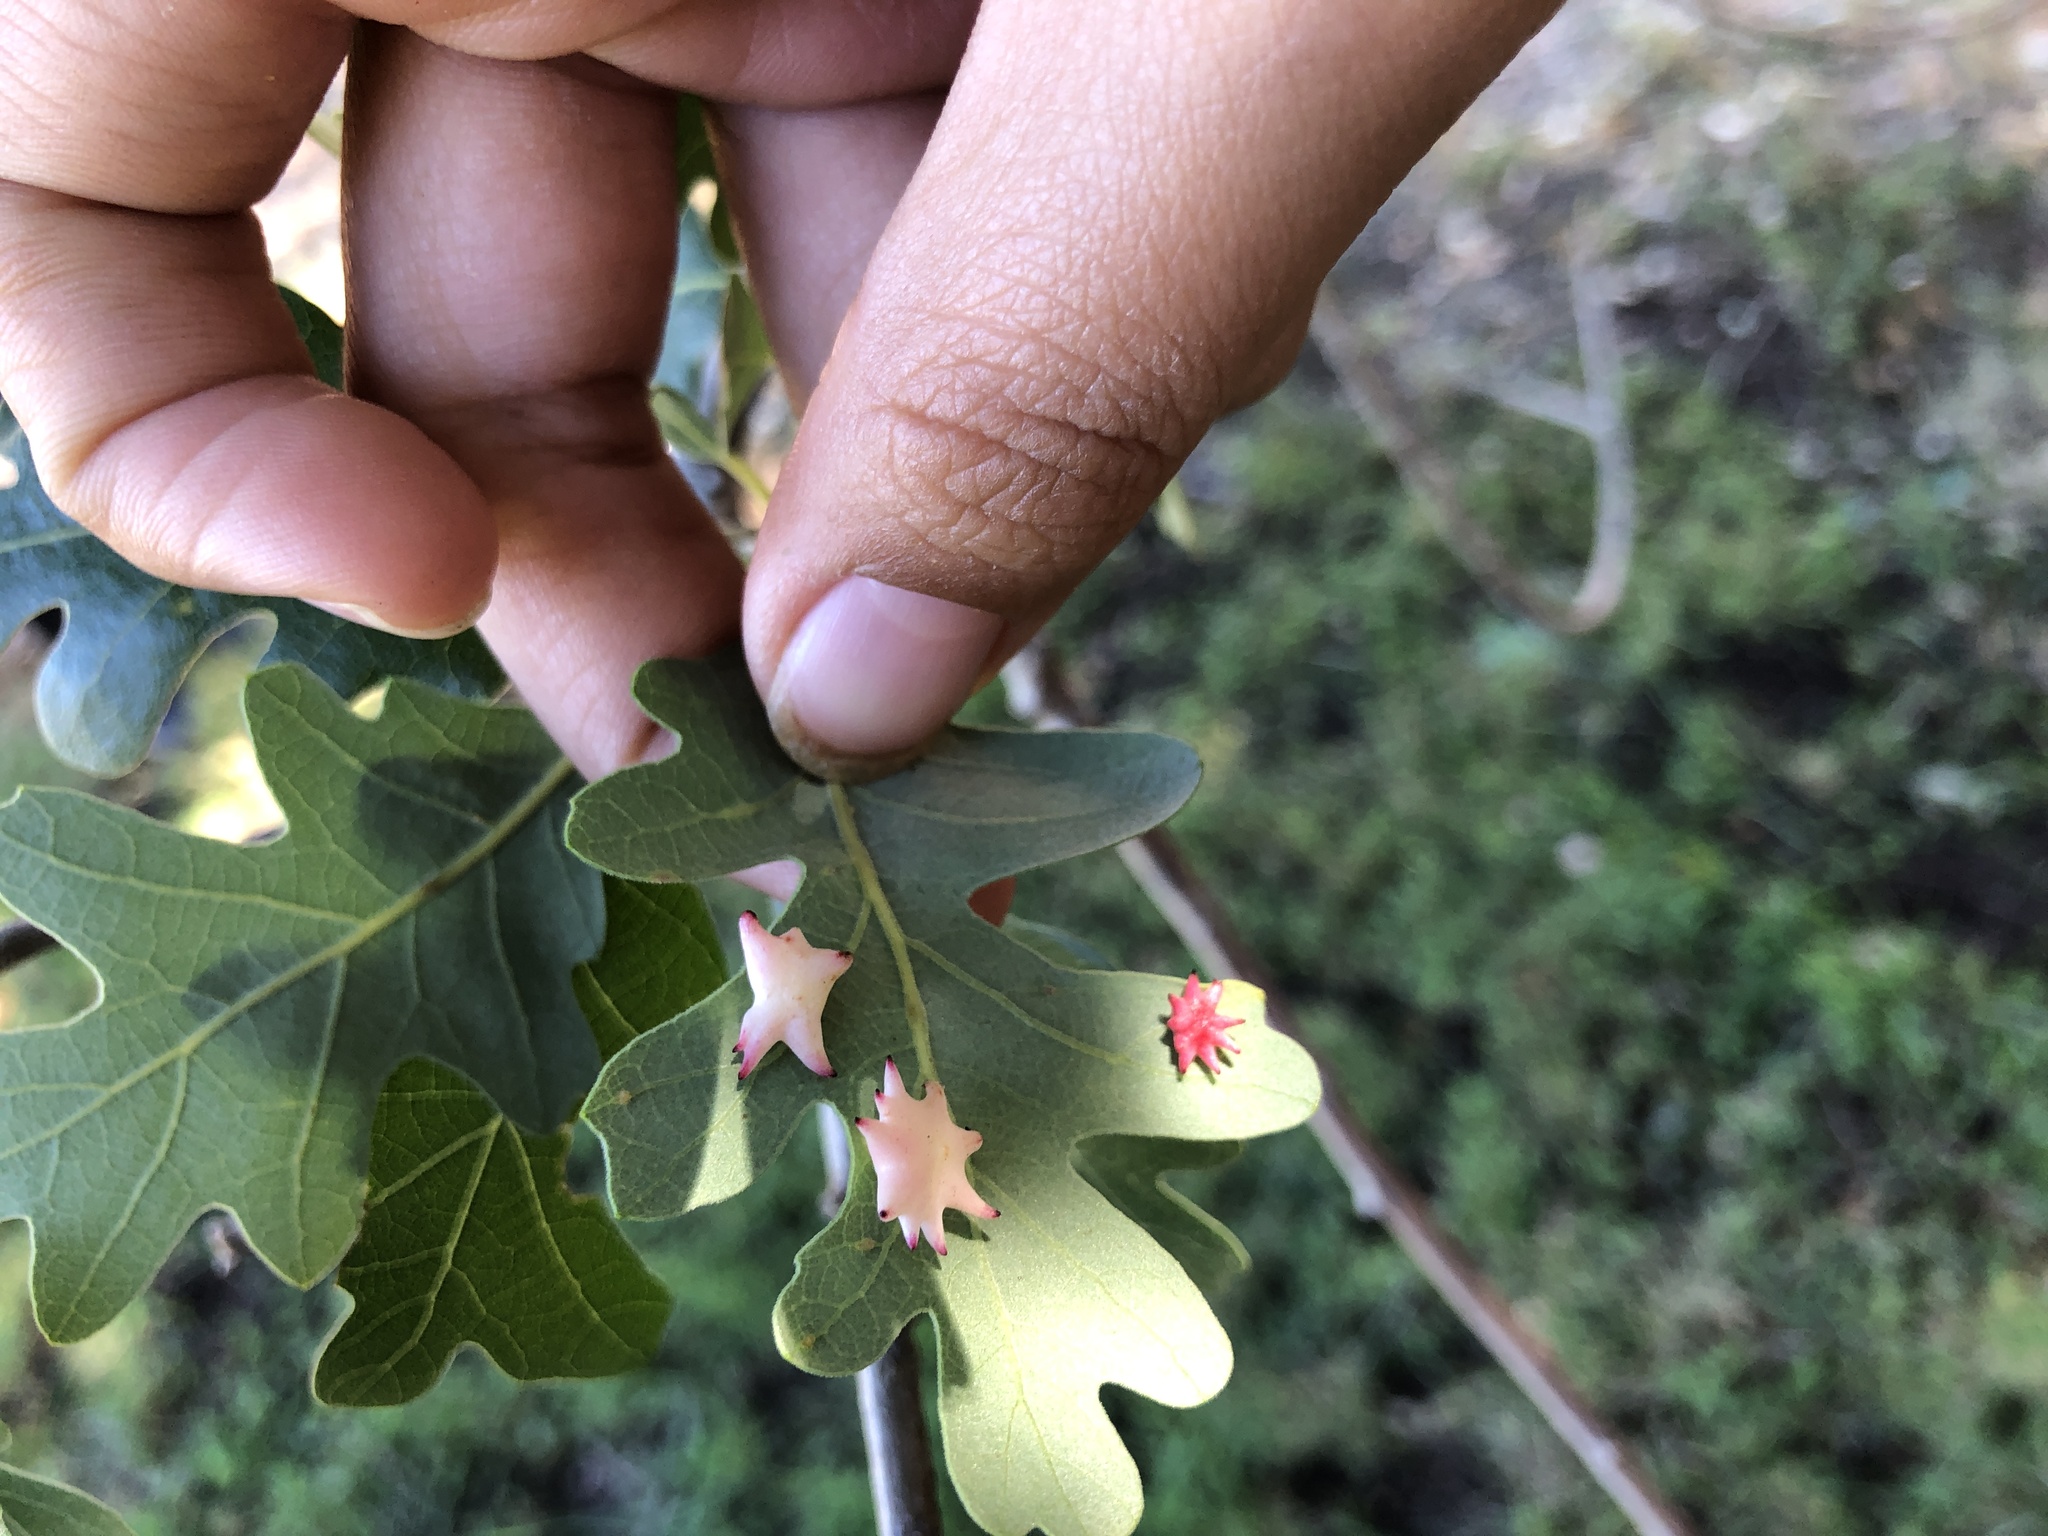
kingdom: Animalia
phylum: Arthropoda
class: Insecta
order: Hymenoptera
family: Cynipidae
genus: Cynips
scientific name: Cynips douglasi
